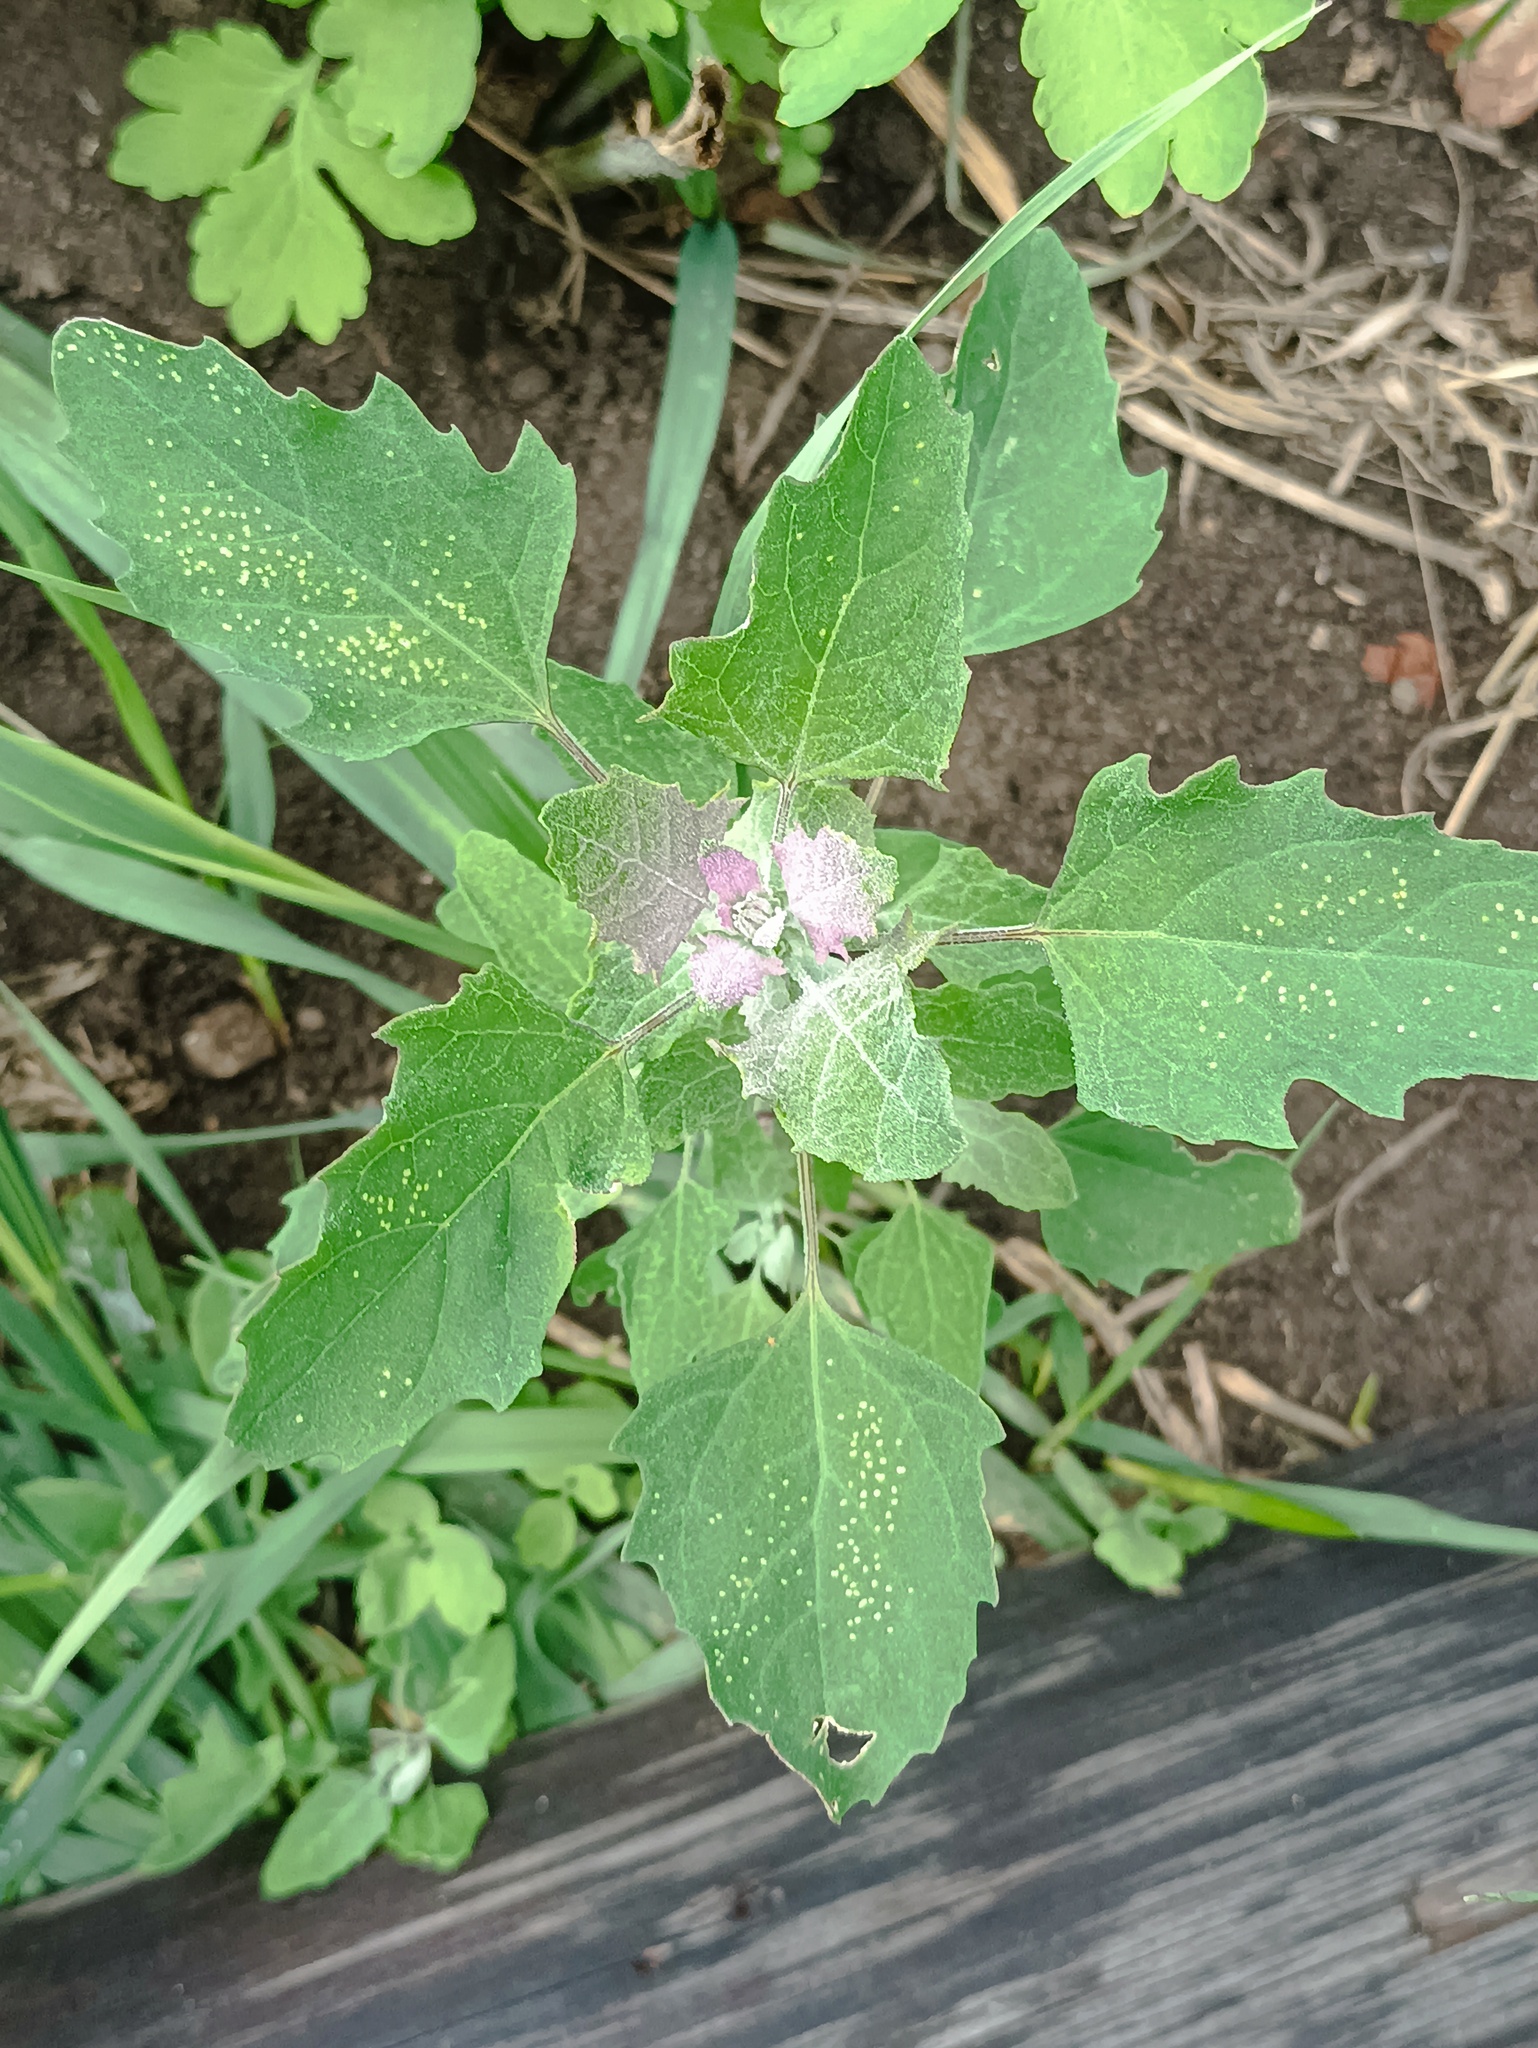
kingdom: Plantae
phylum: Tracheophyta
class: Magnoliopsida
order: Caryophyllales
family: Amaranthaceae
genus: Chenopodium
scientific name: Chenopodium album
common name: Fat-hen
